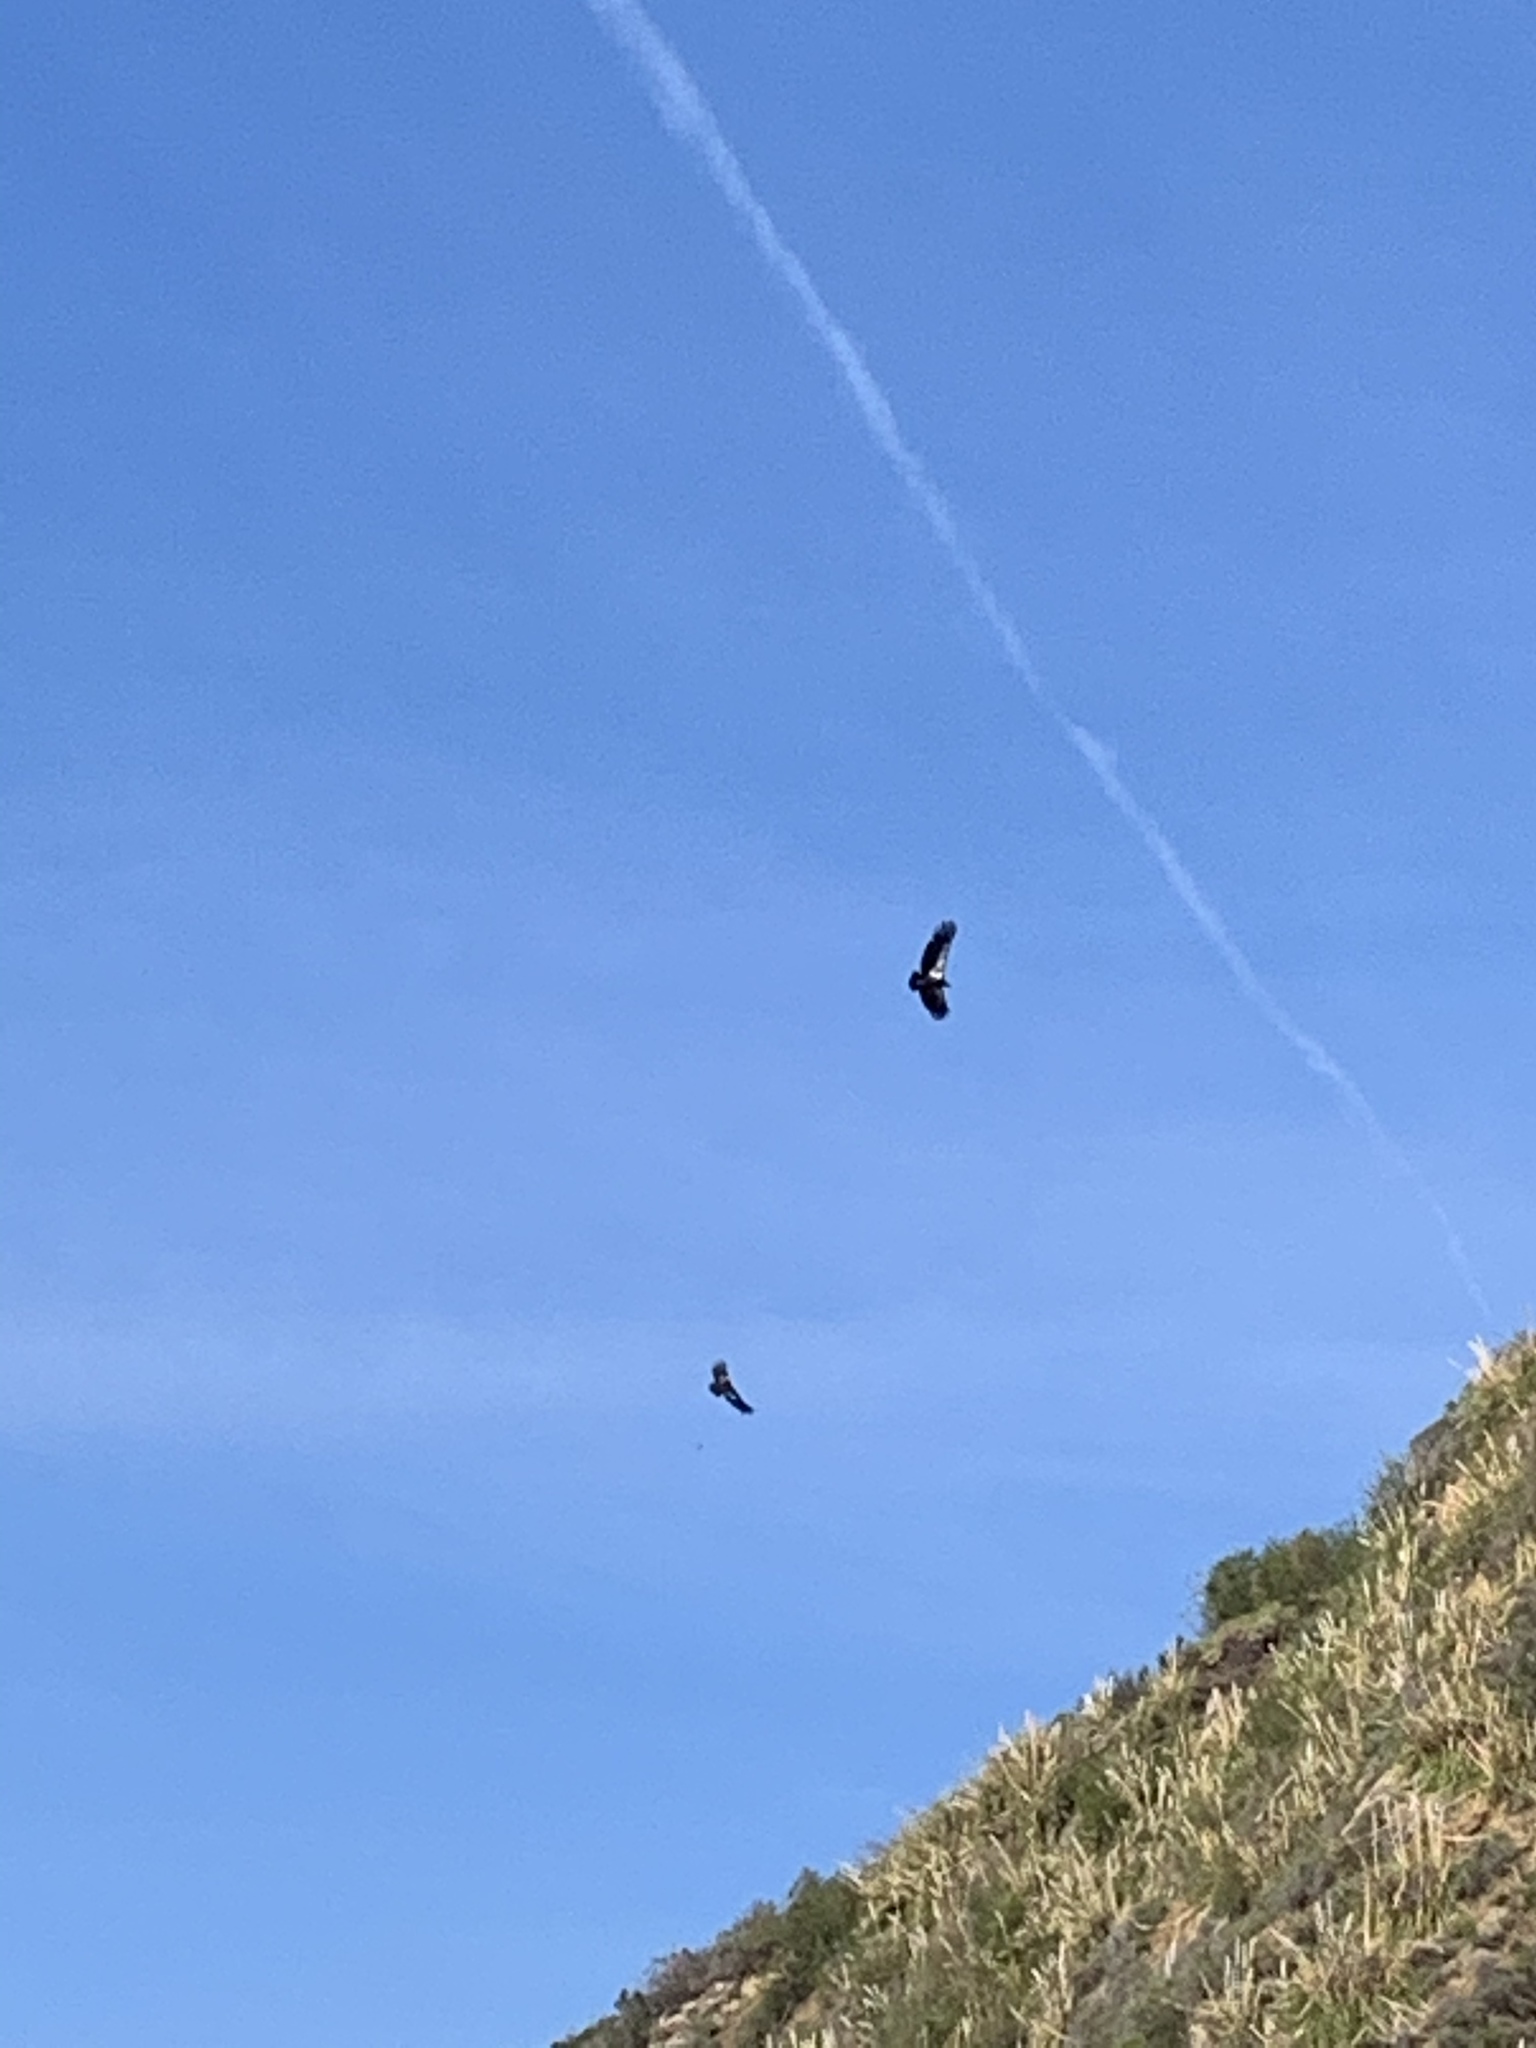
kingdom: Animalia
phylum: Chordata
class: Aves
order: Accipitriformes
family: Cathartidae
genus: Gymnogyps
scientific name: Gymnogyps californianus
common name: California condor
